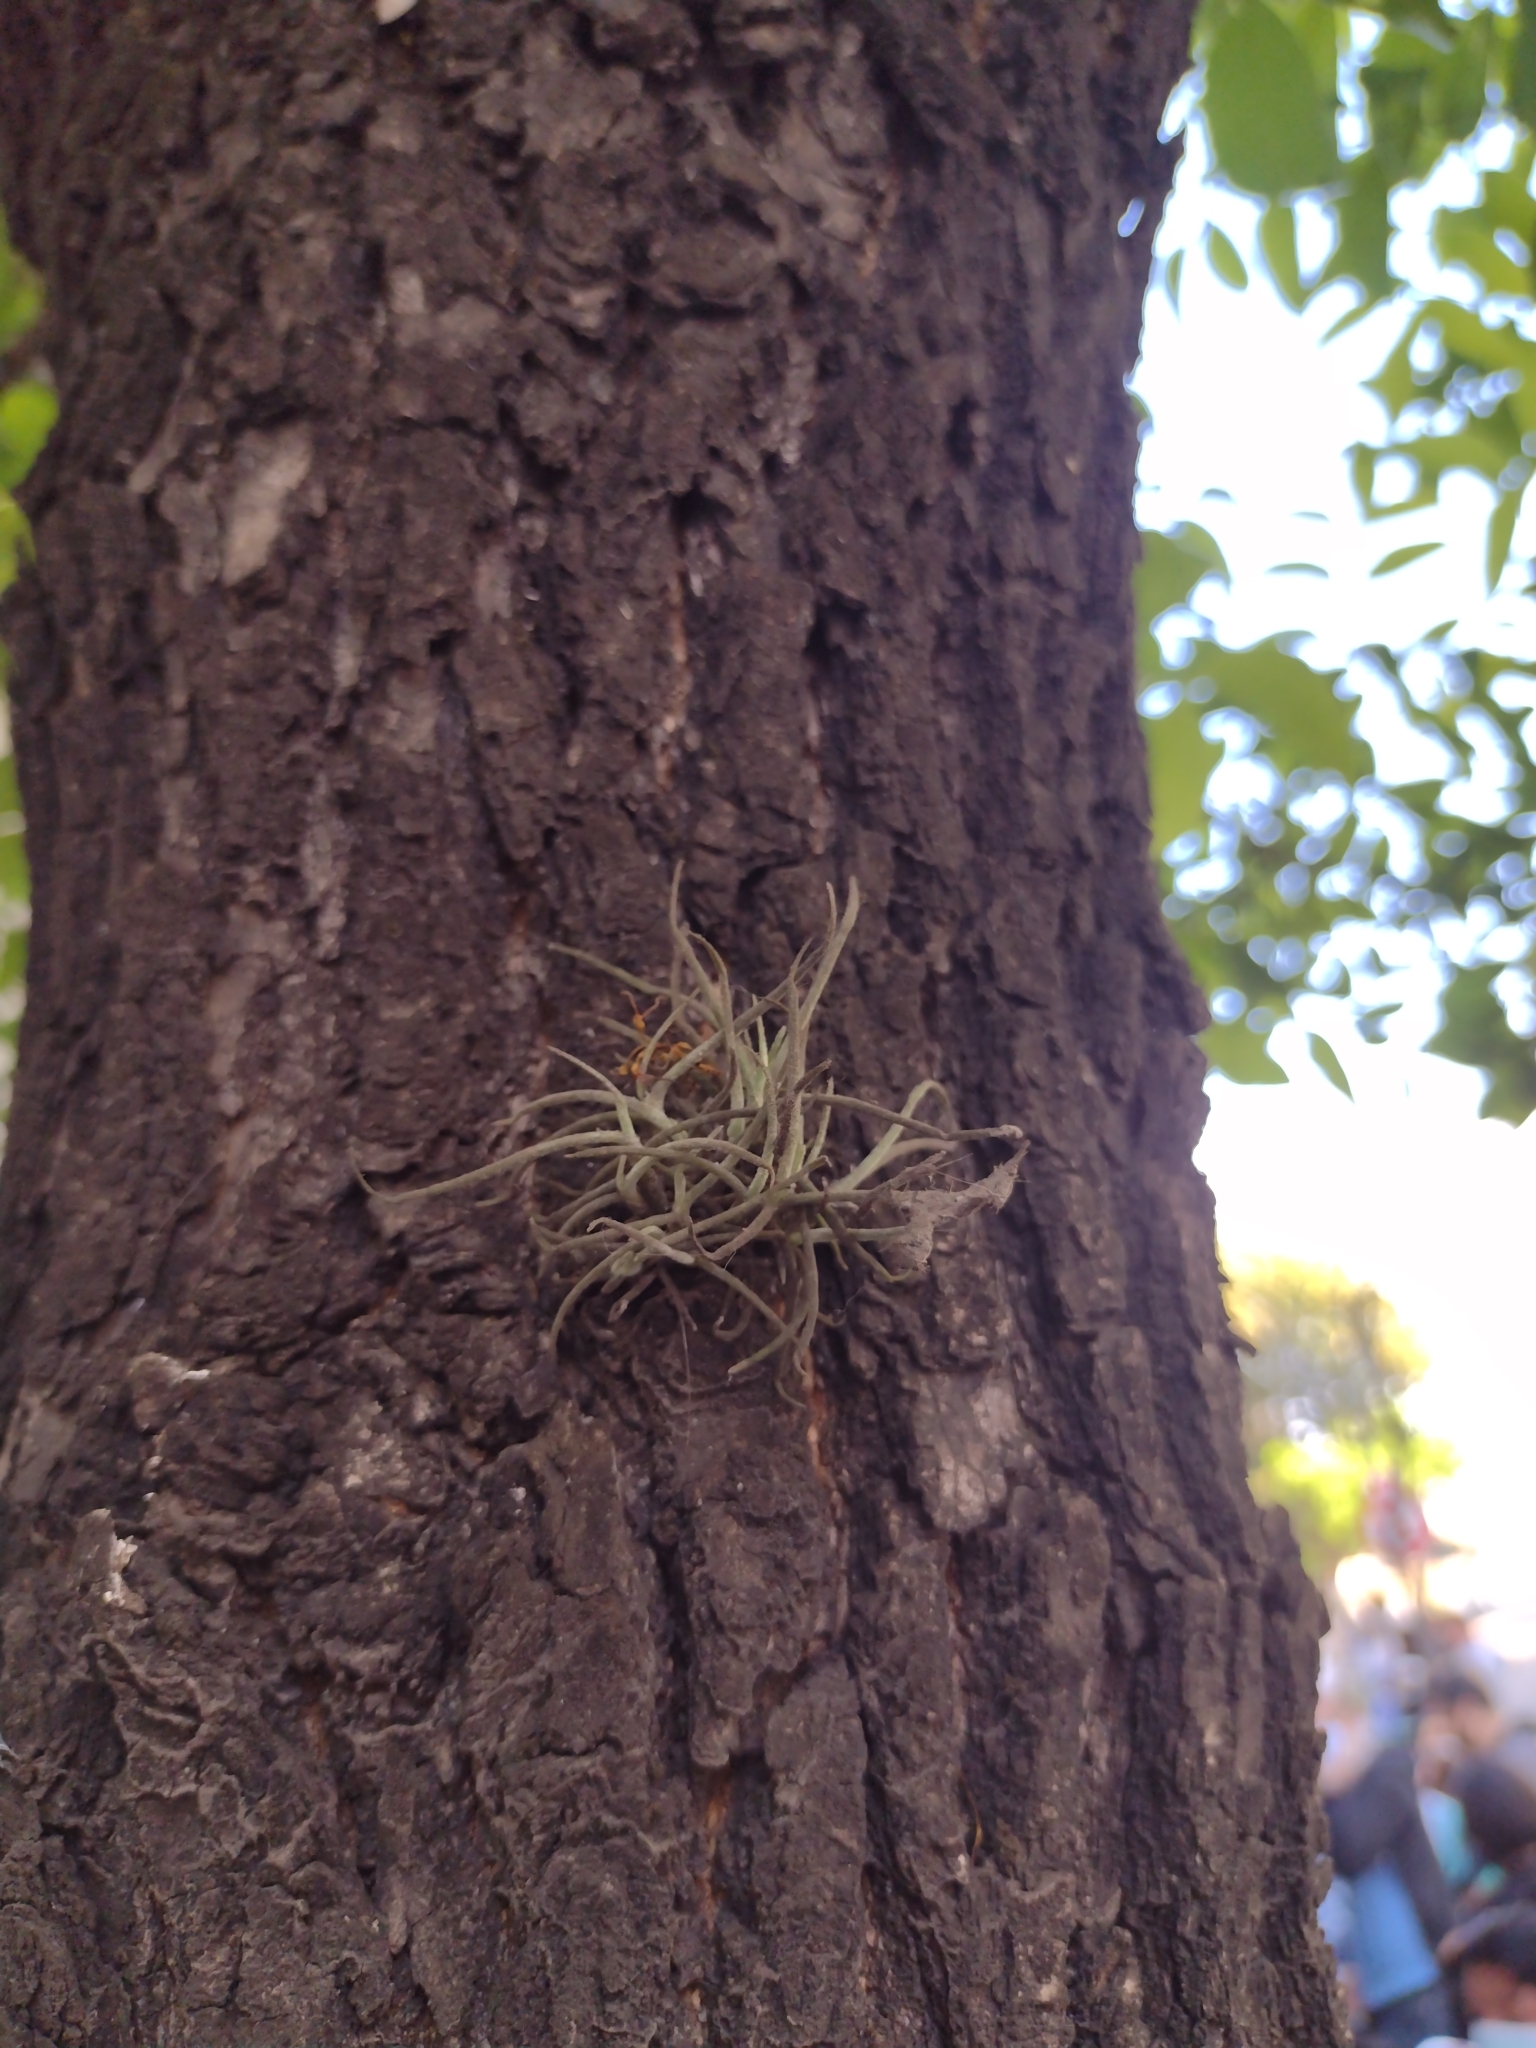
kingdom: Plantae
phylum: Tracheophyta
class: Liliopsida
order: Poales
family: Bromeliaceae
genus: Tillandsia
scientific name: Tillandsia recurvata
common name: Small ballmoss
